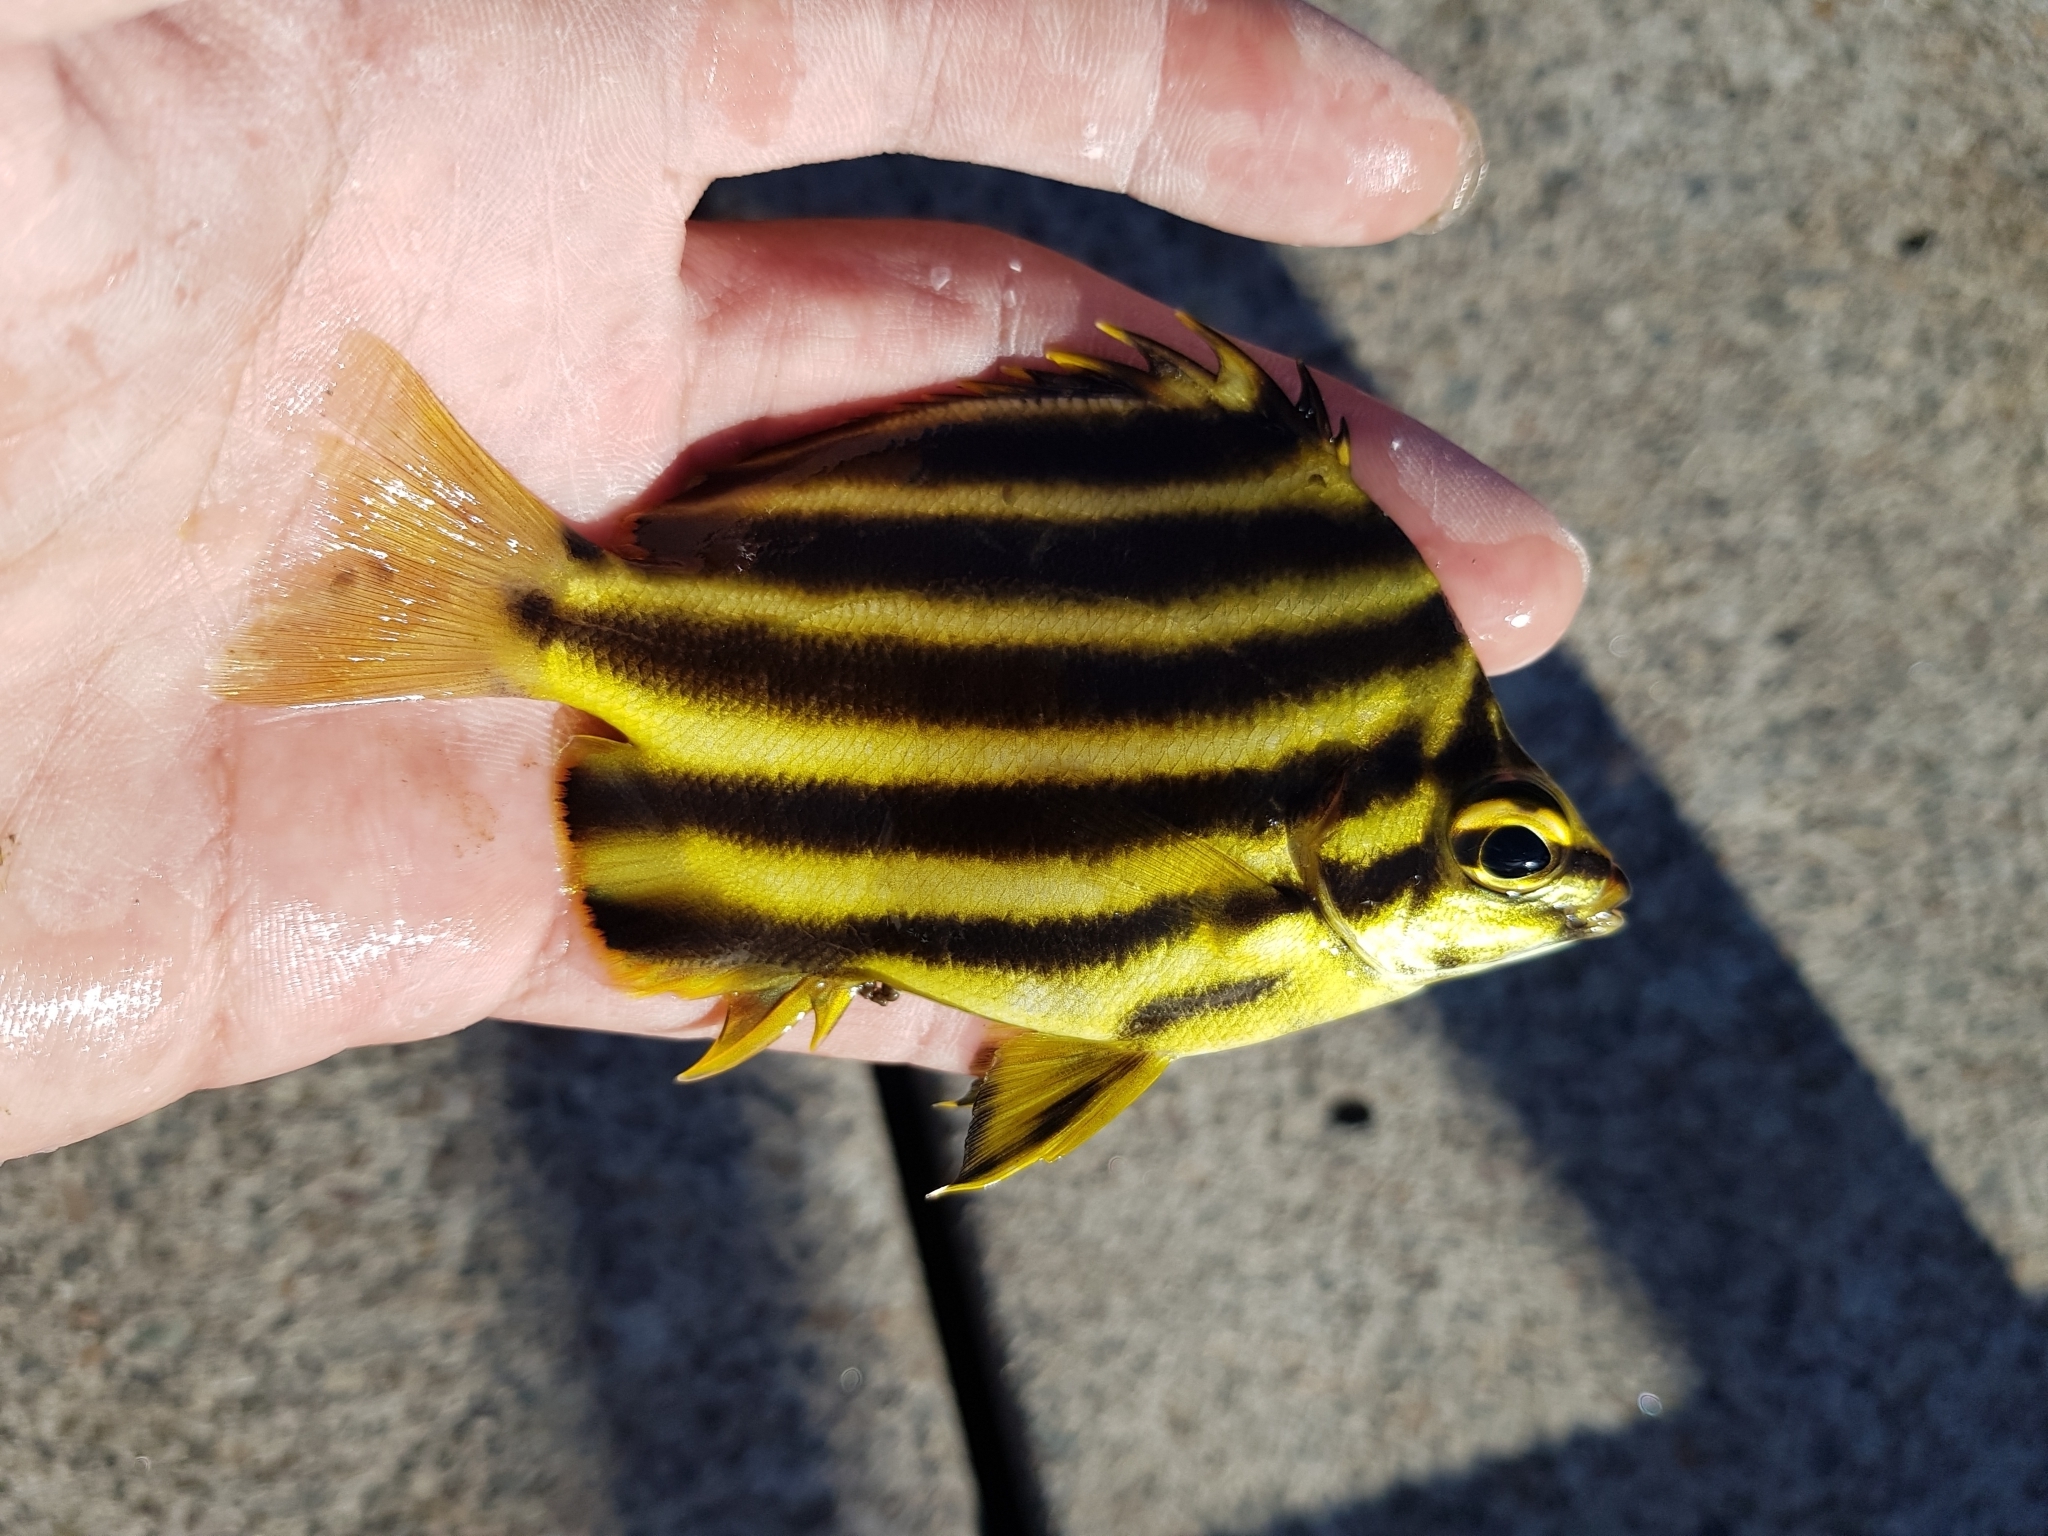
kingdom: Animalia
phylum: Chordata
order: Perciformes
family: Kyphosidae
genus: Microcanthus
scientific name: Microcanthus joyceae
